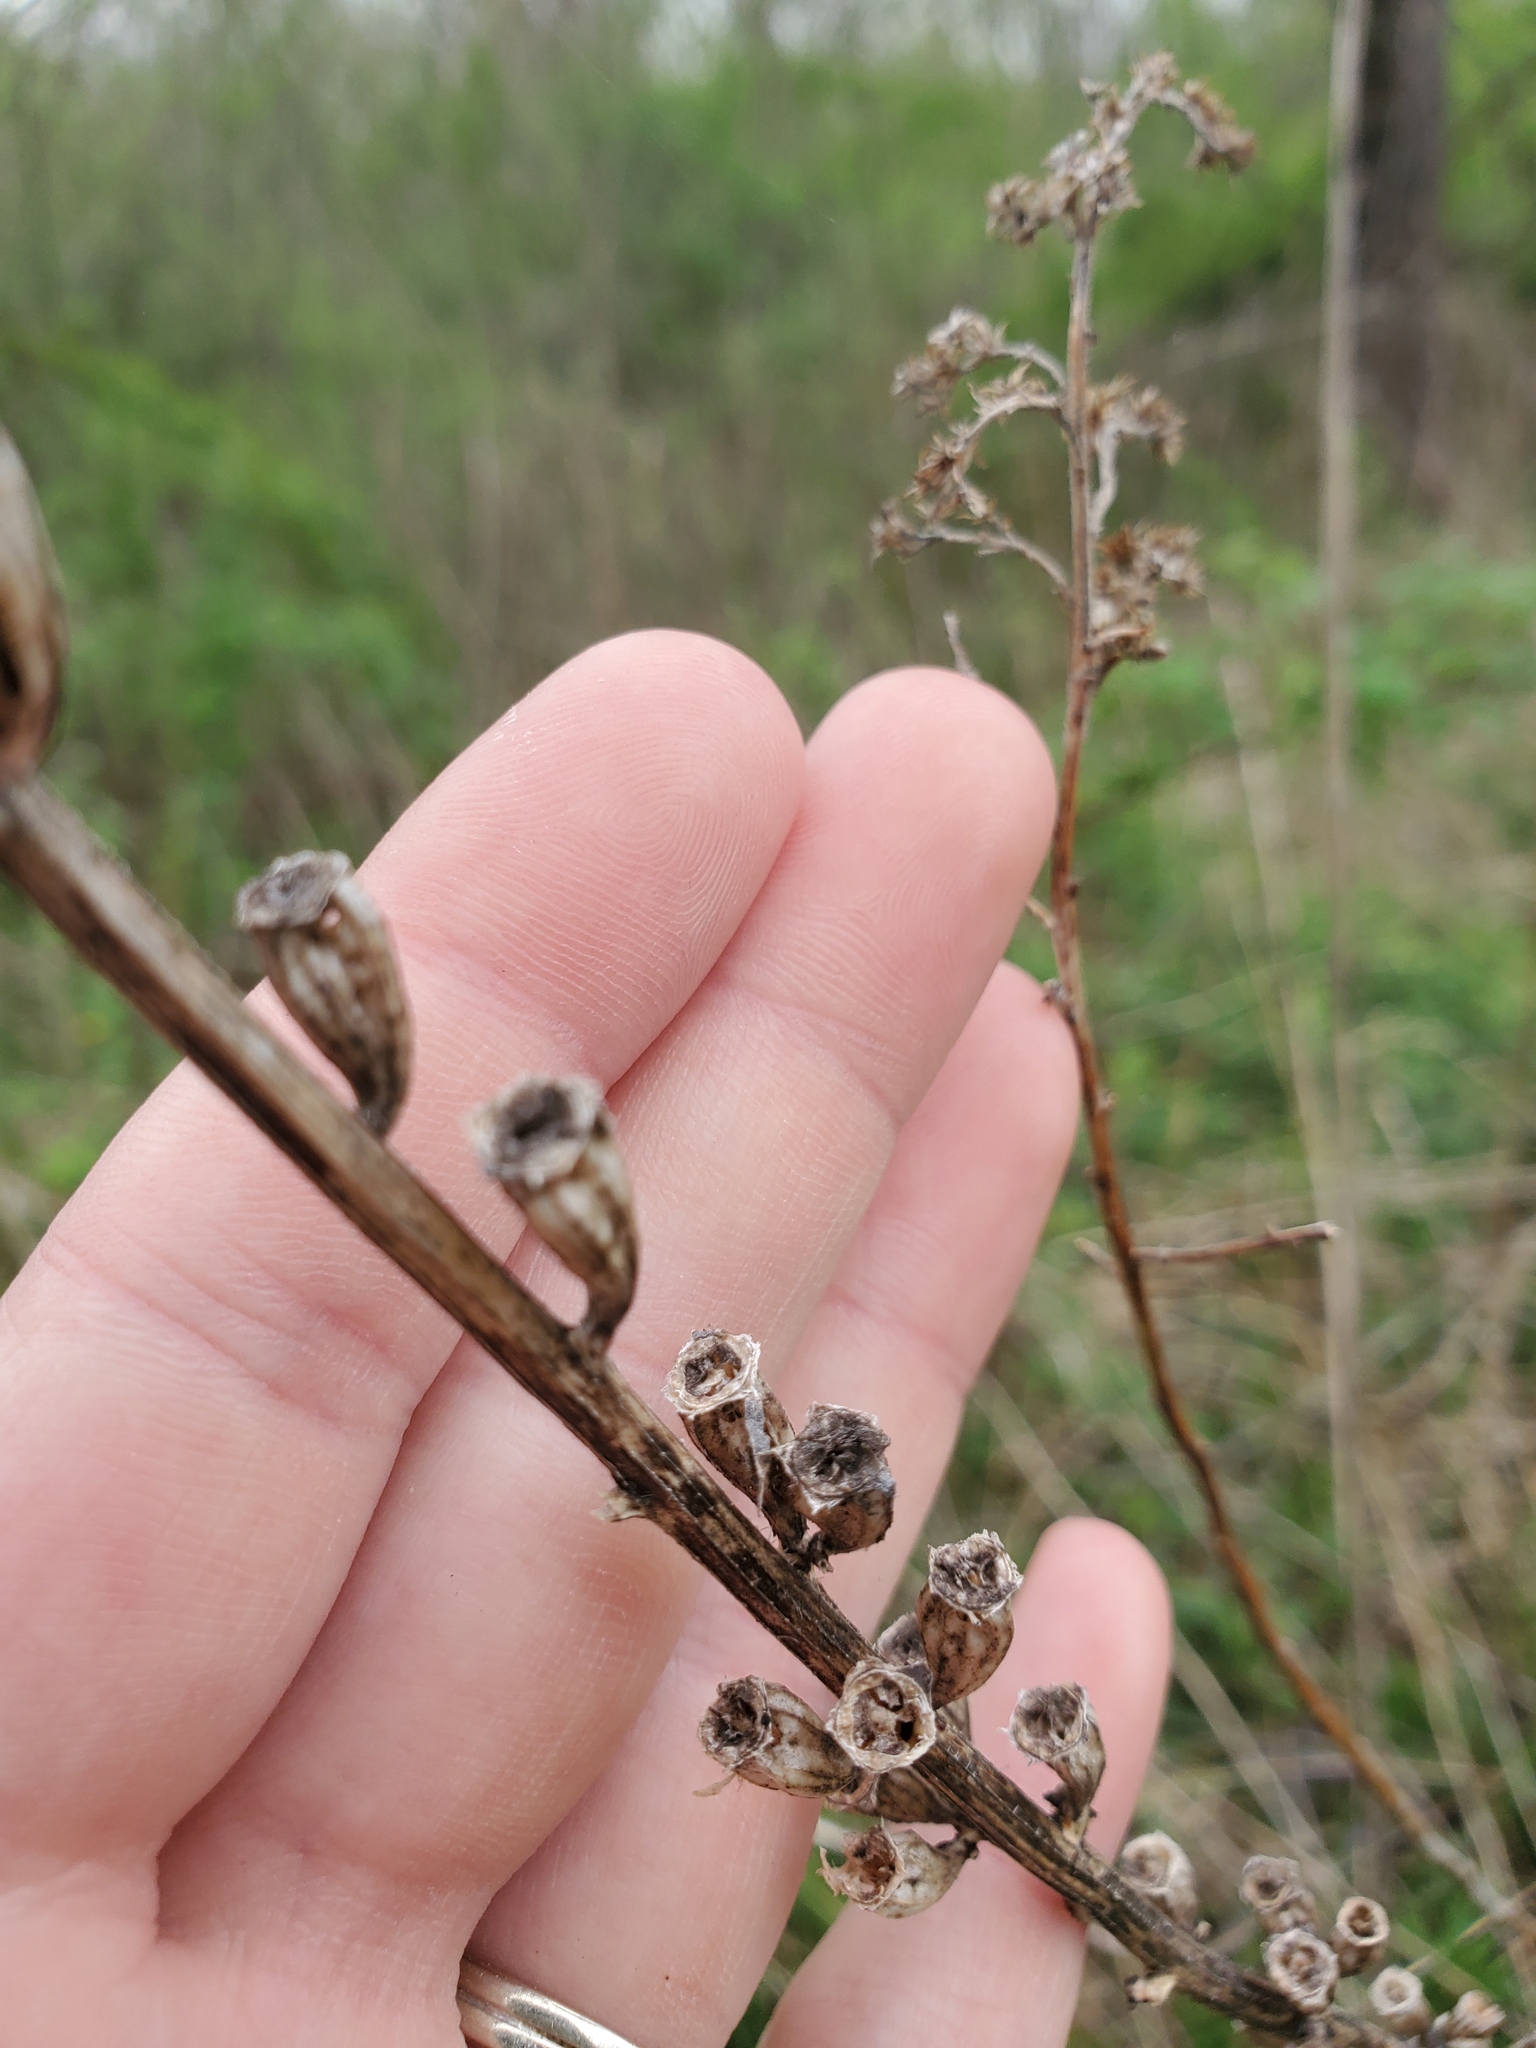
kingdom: Plantae
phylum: Tracheophyta
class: Magnoliopsida
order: Asterales
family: Campanulaceae
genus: Campanulastrum
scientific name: Campanulastrum americanum
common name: American bellflower
